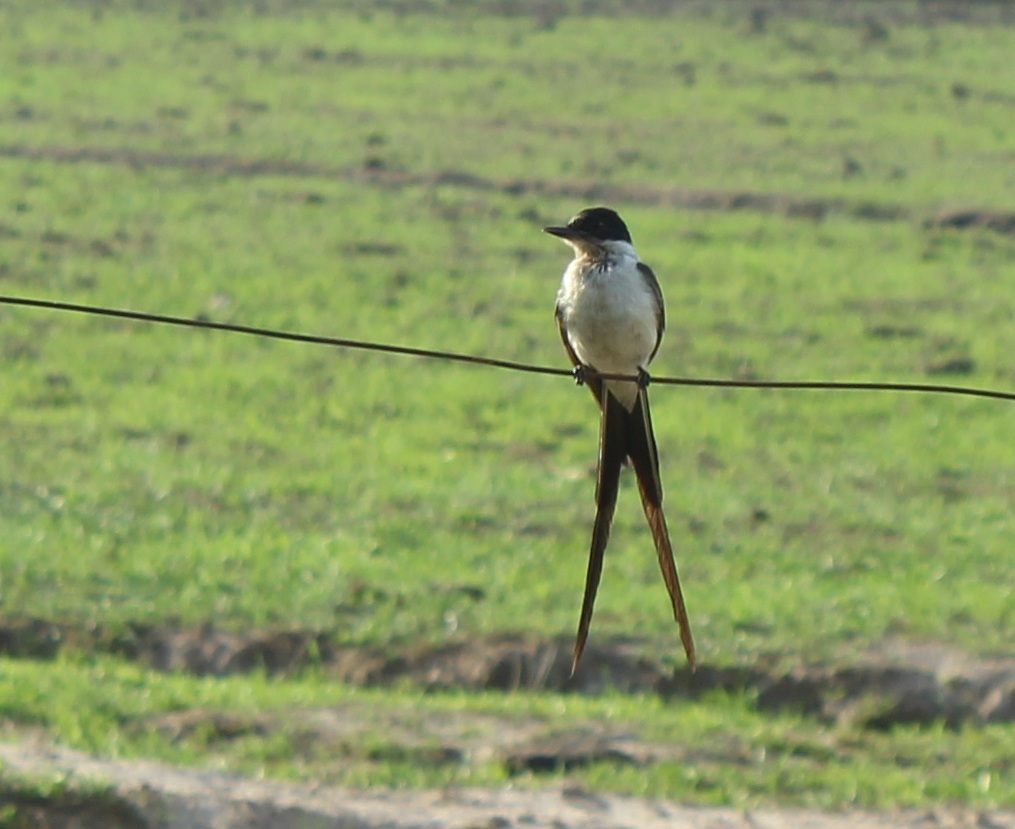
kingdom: Animalia
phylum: Chordata
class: Aves
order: Passeriformes
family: Tyrannidae
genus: Tyrannus
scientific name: Tyrannus savana
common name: Fork-tailed flycatcher
